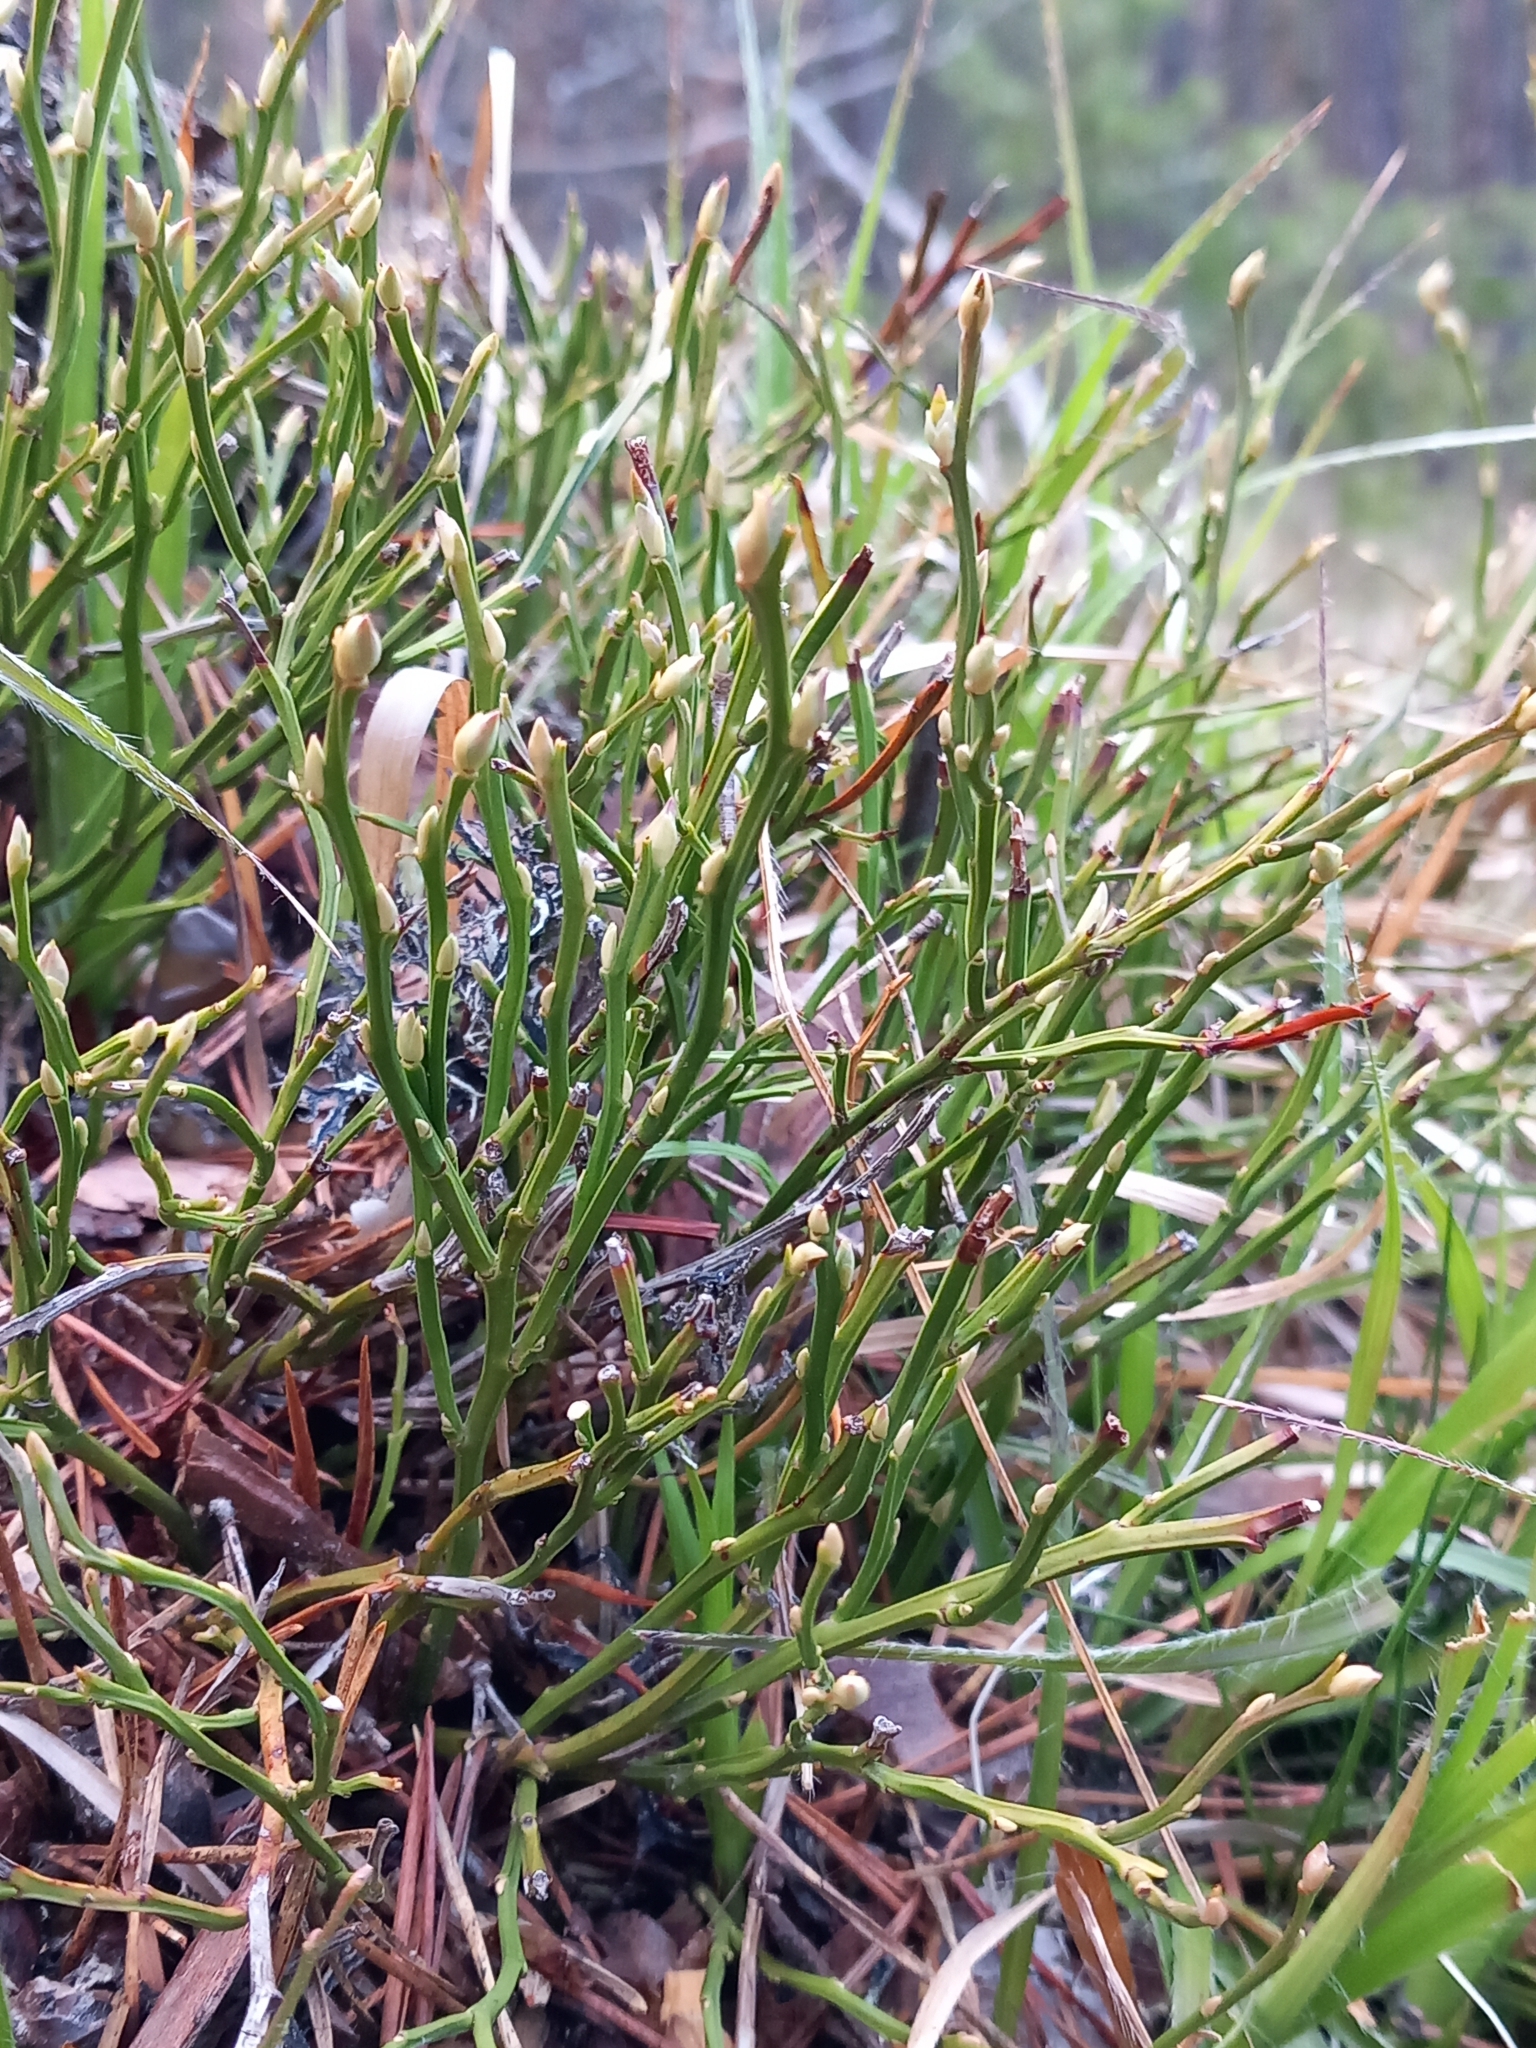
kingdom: Plantae
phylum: Tracheophyta
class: Magnoliopsida
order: Ericales
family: Ericaceae
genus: Vaccinium
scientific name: Vaccinium myrtillus
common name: Bilberry
